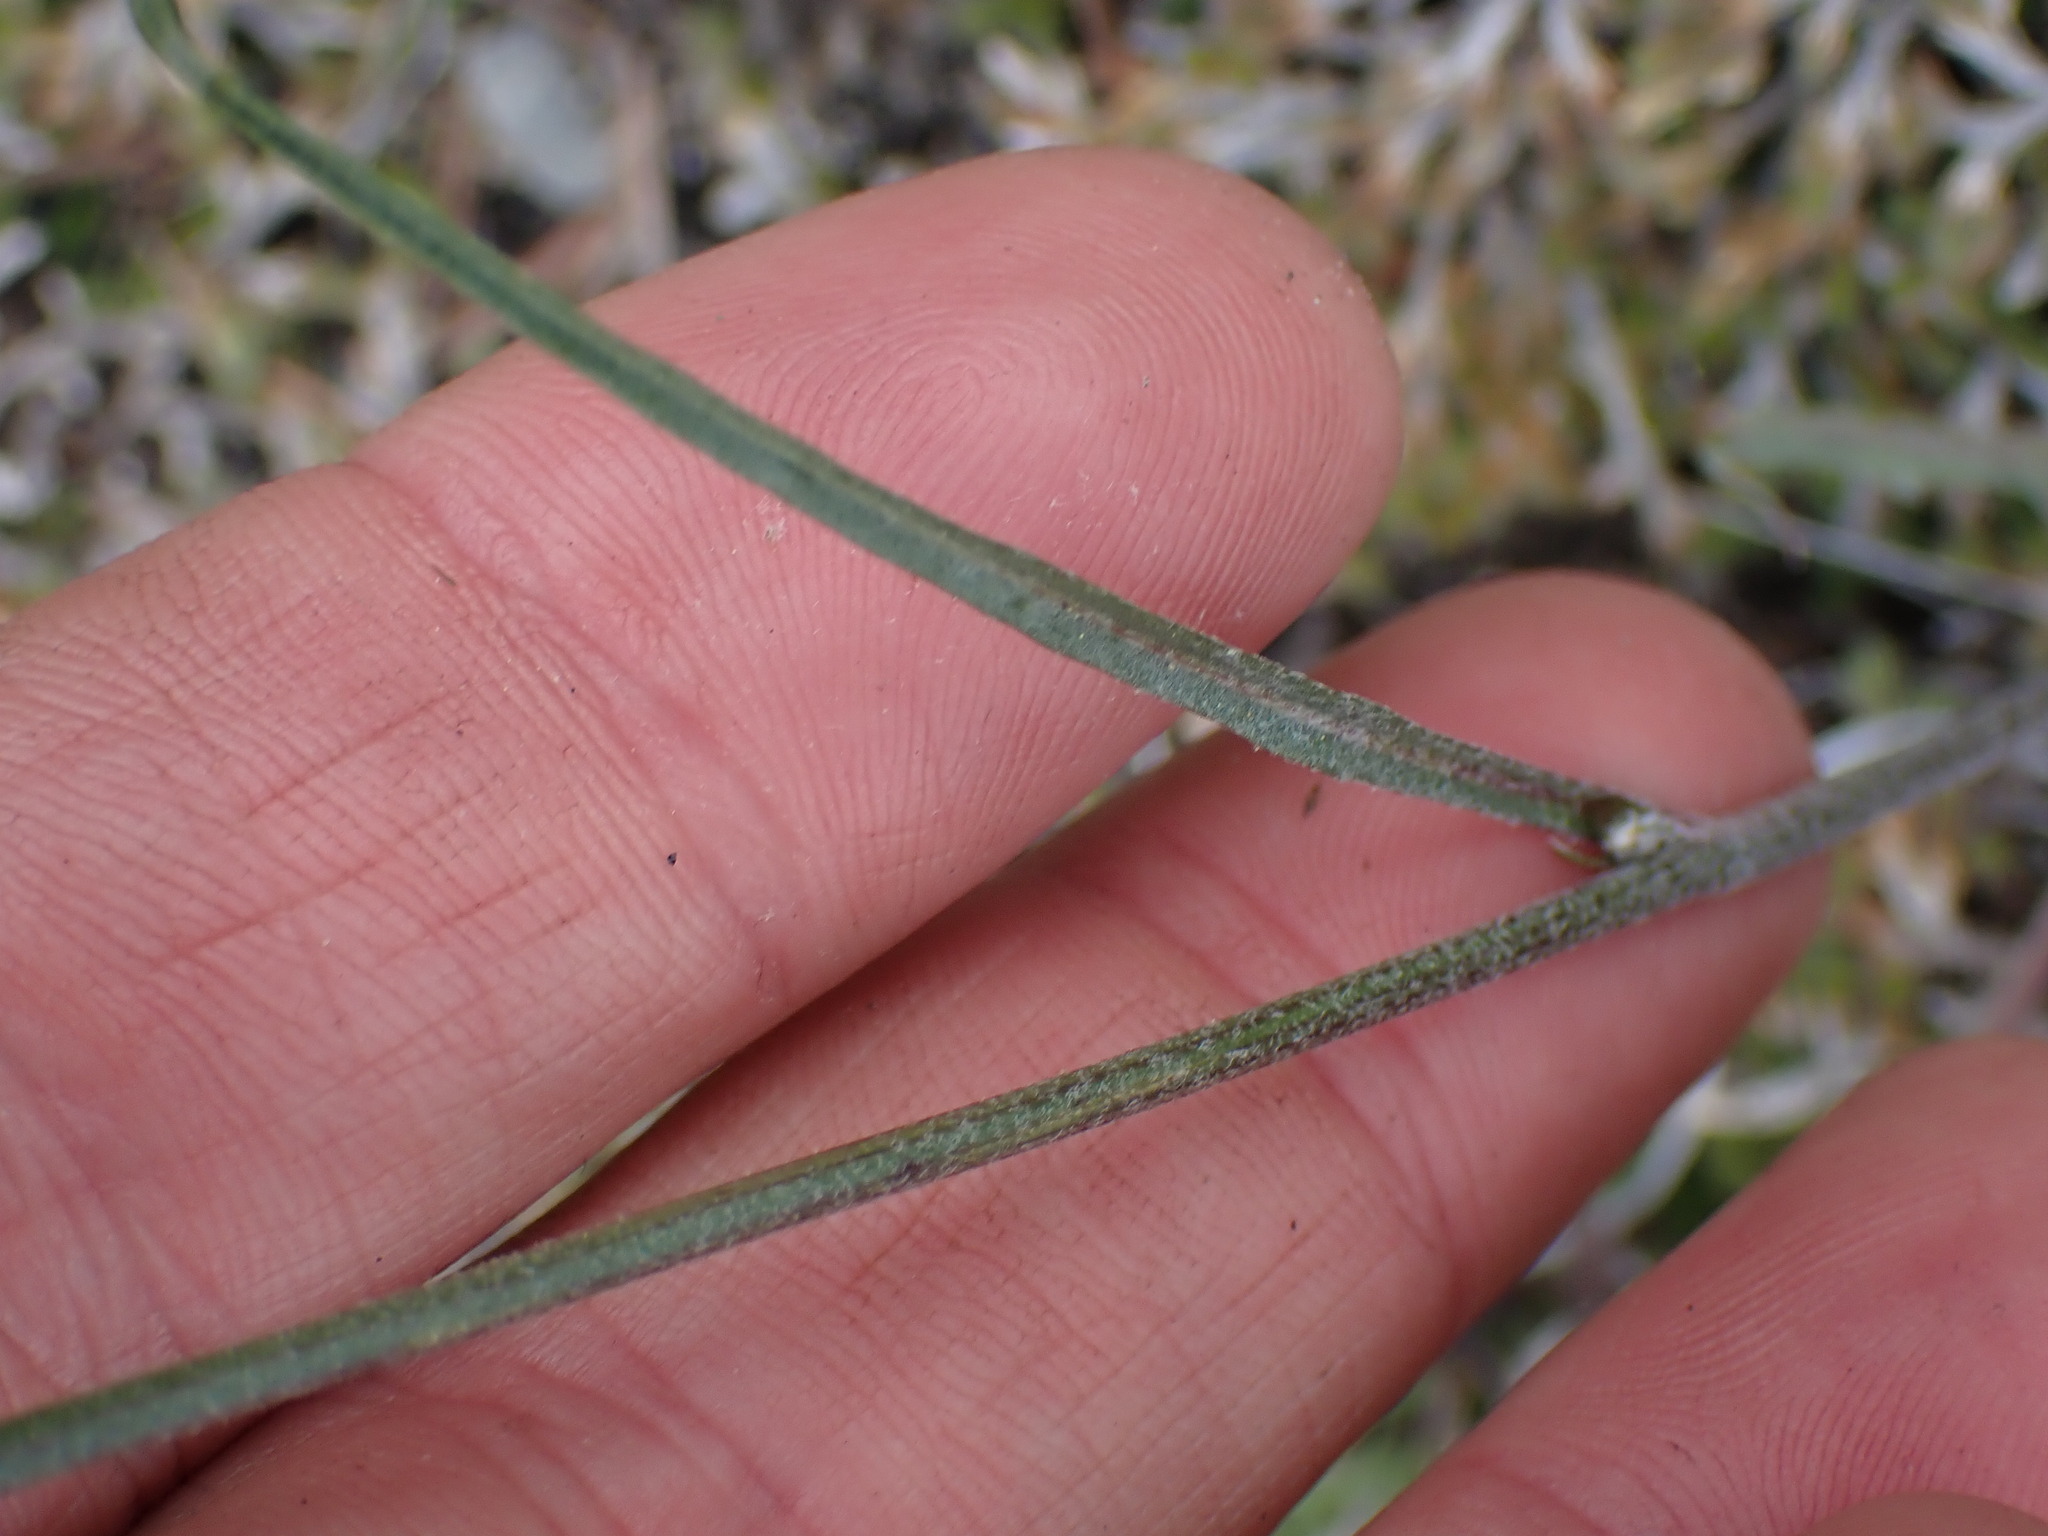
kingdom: Plantae
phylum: Tracheophyta
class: Magnoliopsida
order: Asterales
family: Asteraceae
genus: Crepis
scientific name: Crepis atribarba
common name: Dark hawk's-beard
